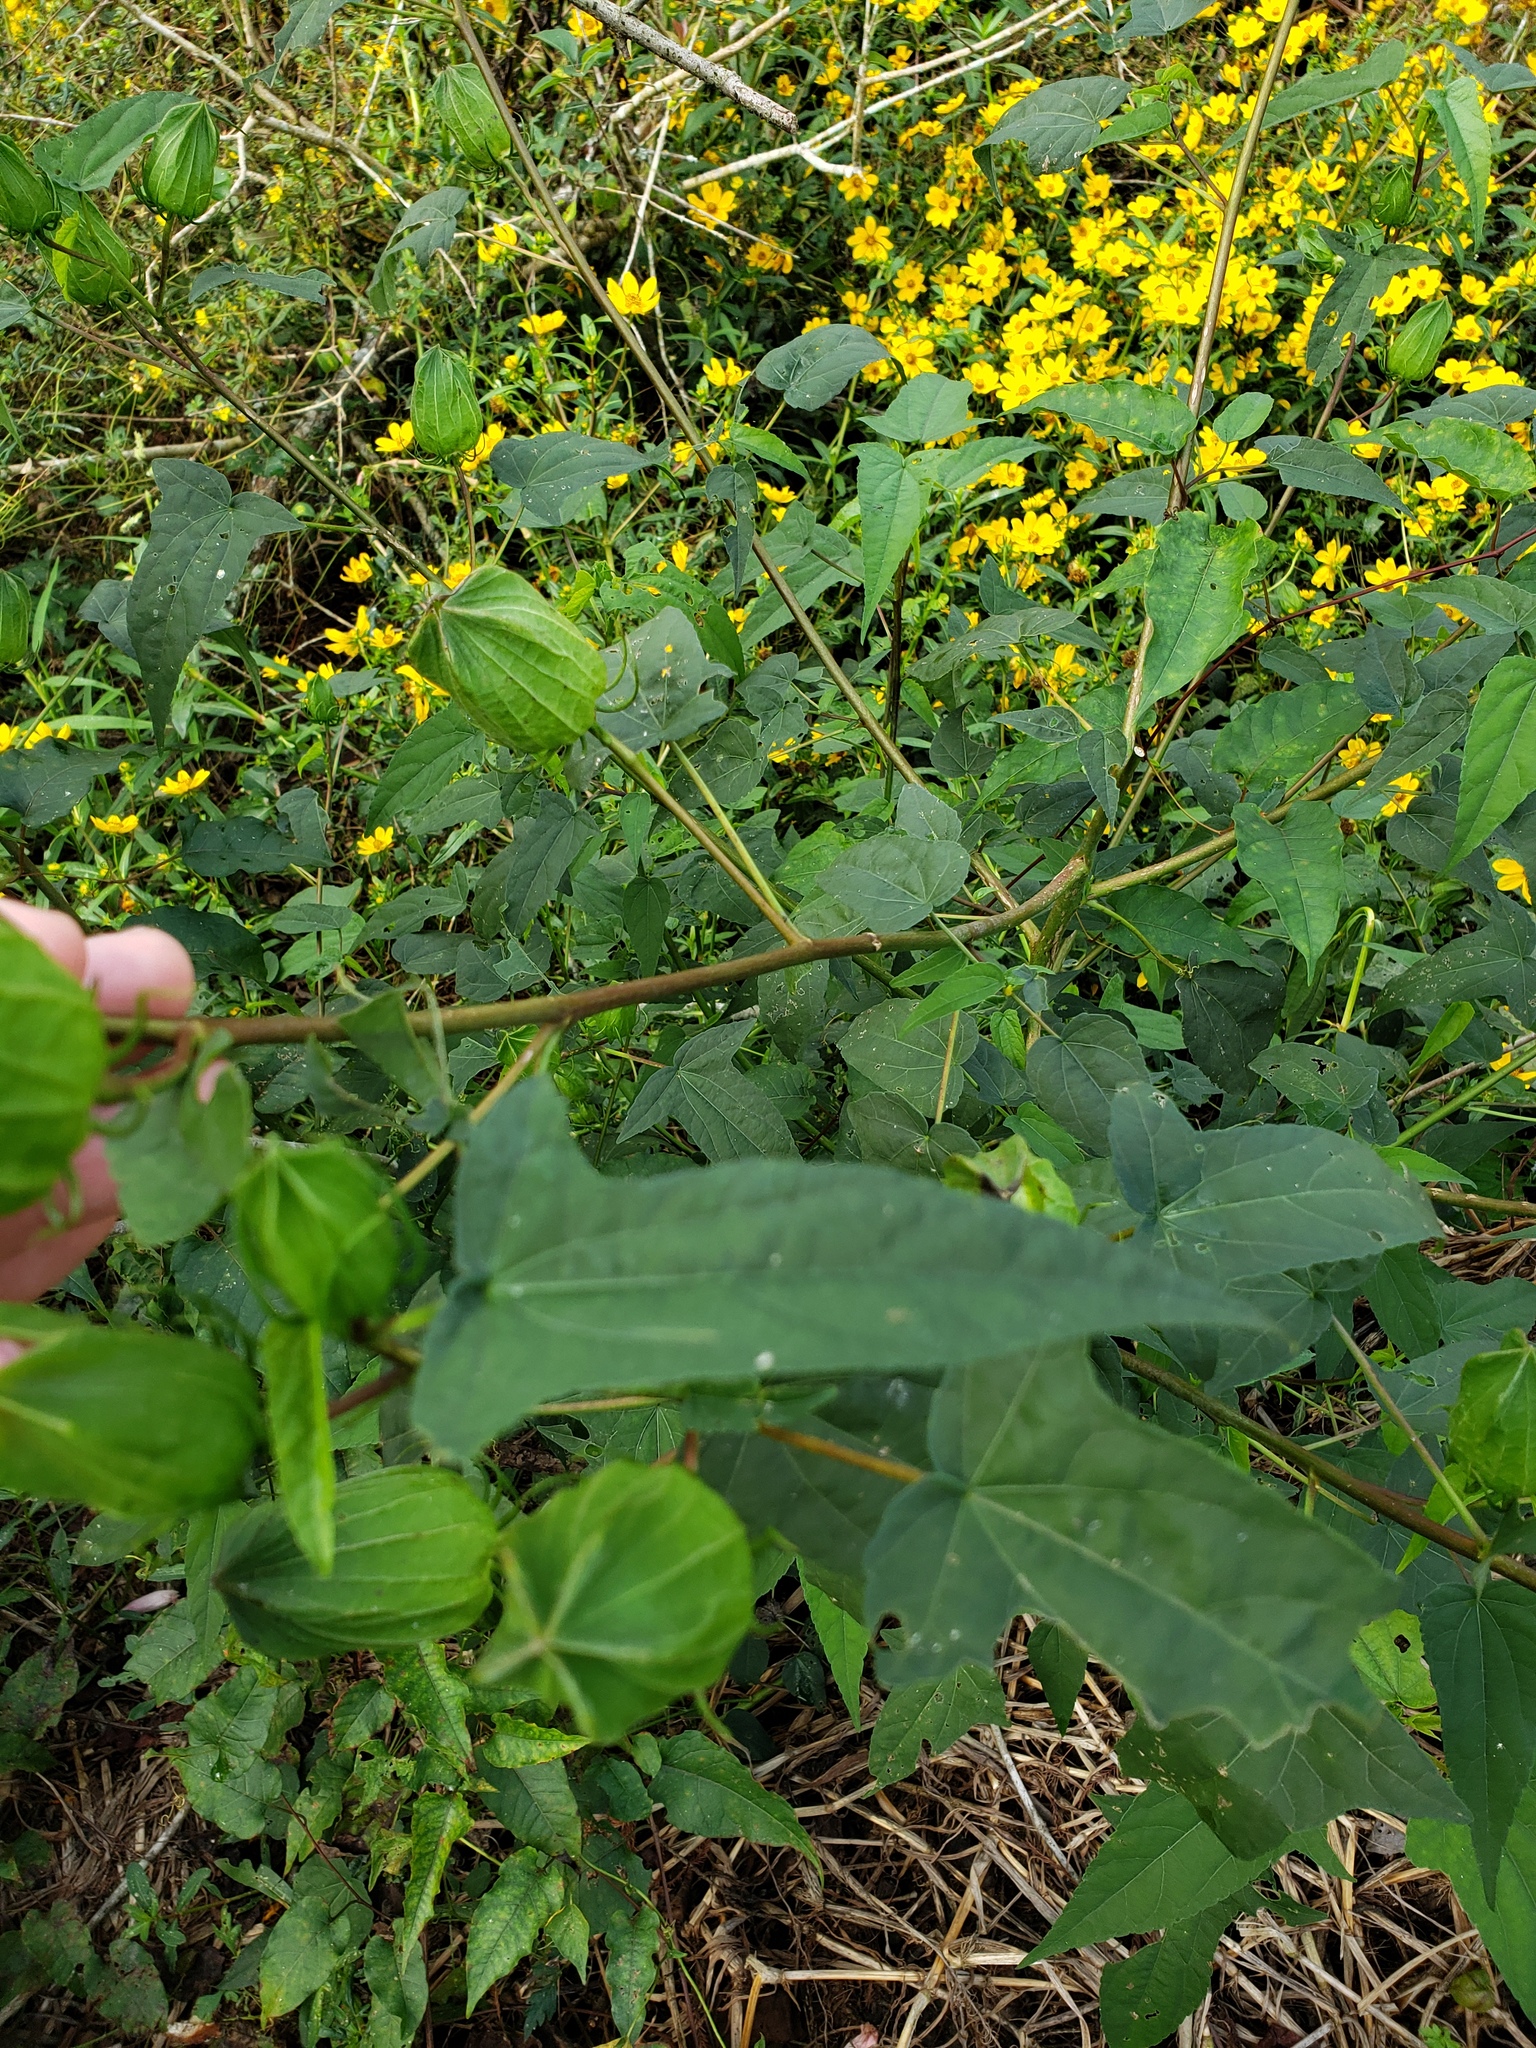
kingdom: Plantae
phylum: Tracheophyta
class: Magnoliopsida
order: Malvales
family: Malvaceae
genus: Hibiscus
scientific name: Hibiscus laevis
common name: Scarlet rose-mallow
